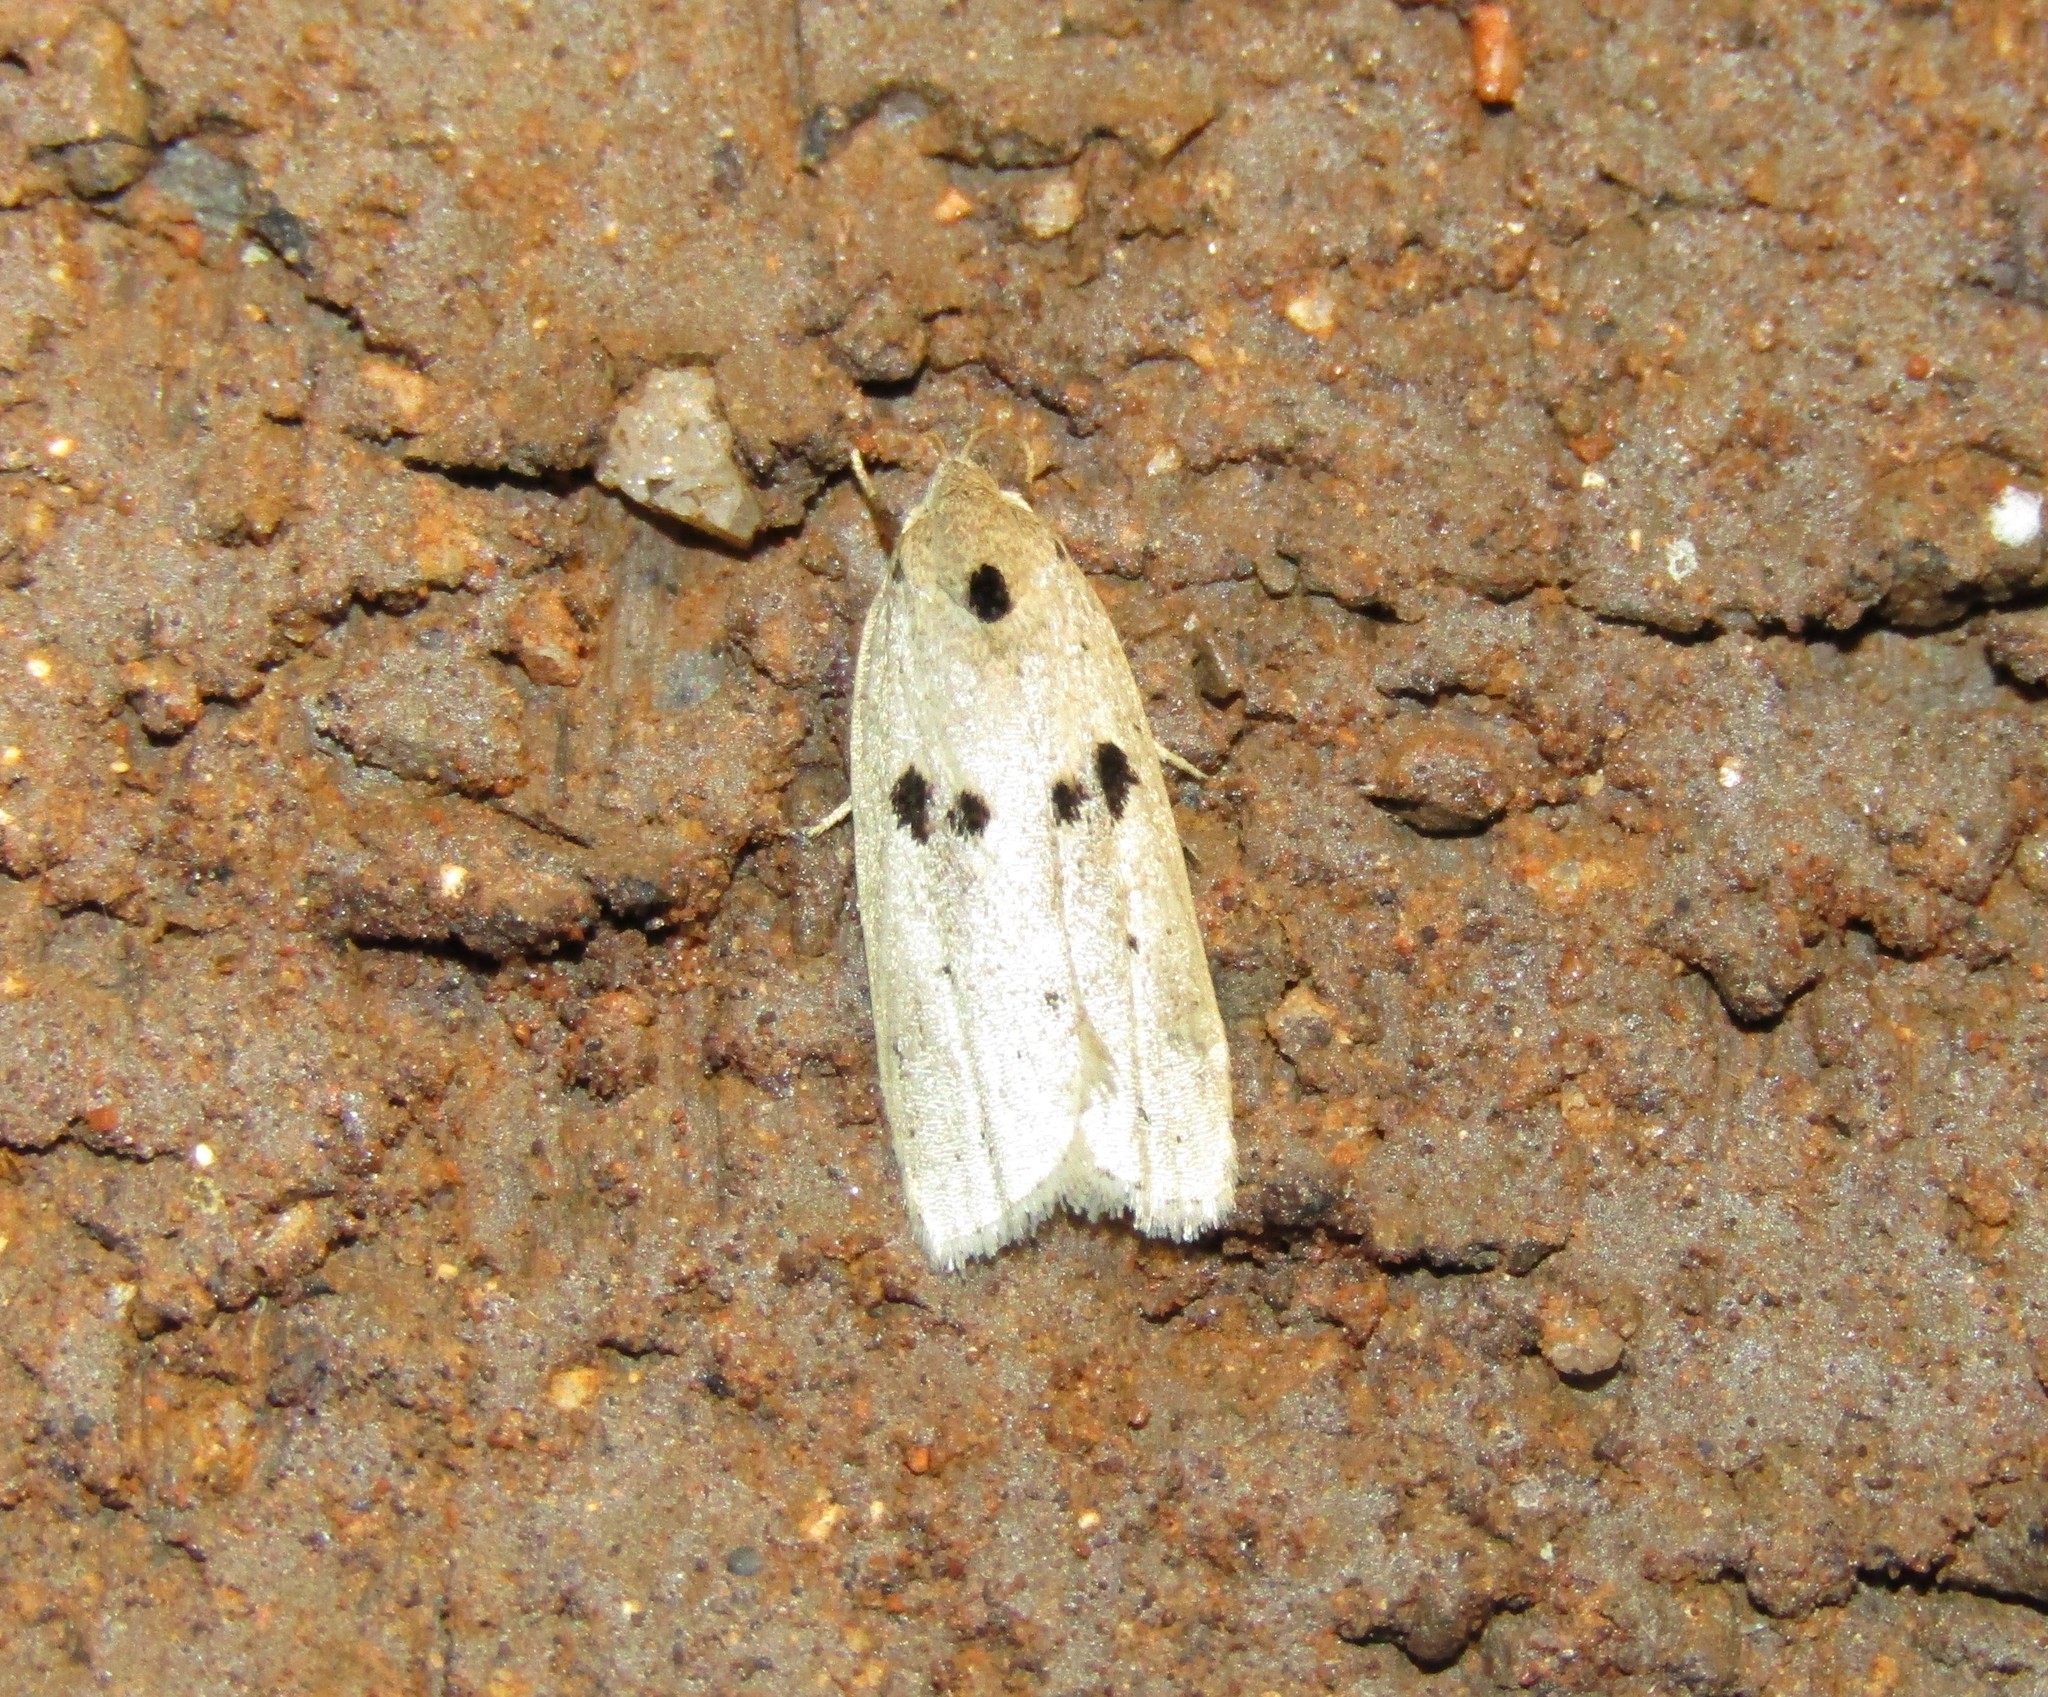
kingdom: Animalia
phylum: Arthropoda
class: Insecta
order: Lepidoptera
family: Peleopodidae
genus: Scythropiodes
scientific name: Scythropiodes issikii
